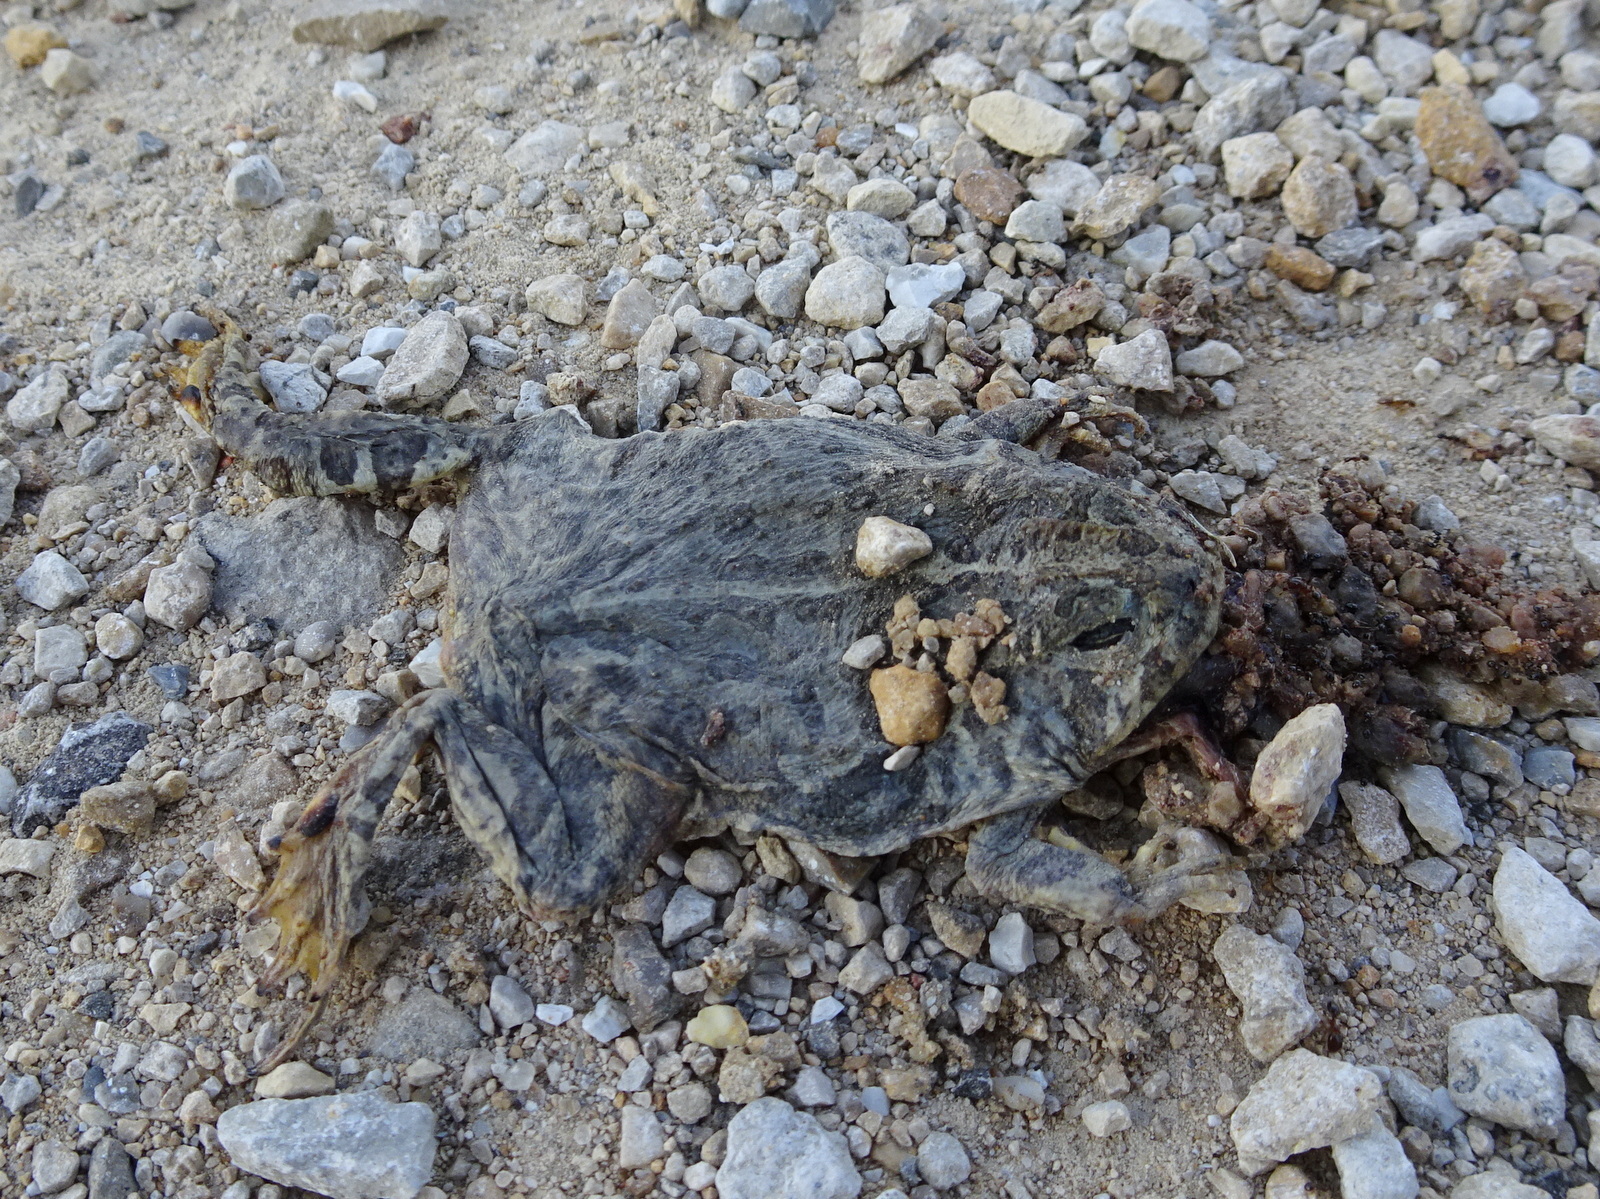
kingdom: Animalia
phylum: Chordata
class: Amphibia
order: Anura
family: Bufonidae
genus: Anaxyrus
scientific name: Anaxyrus woodhousii
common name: Woodhouse's toad
